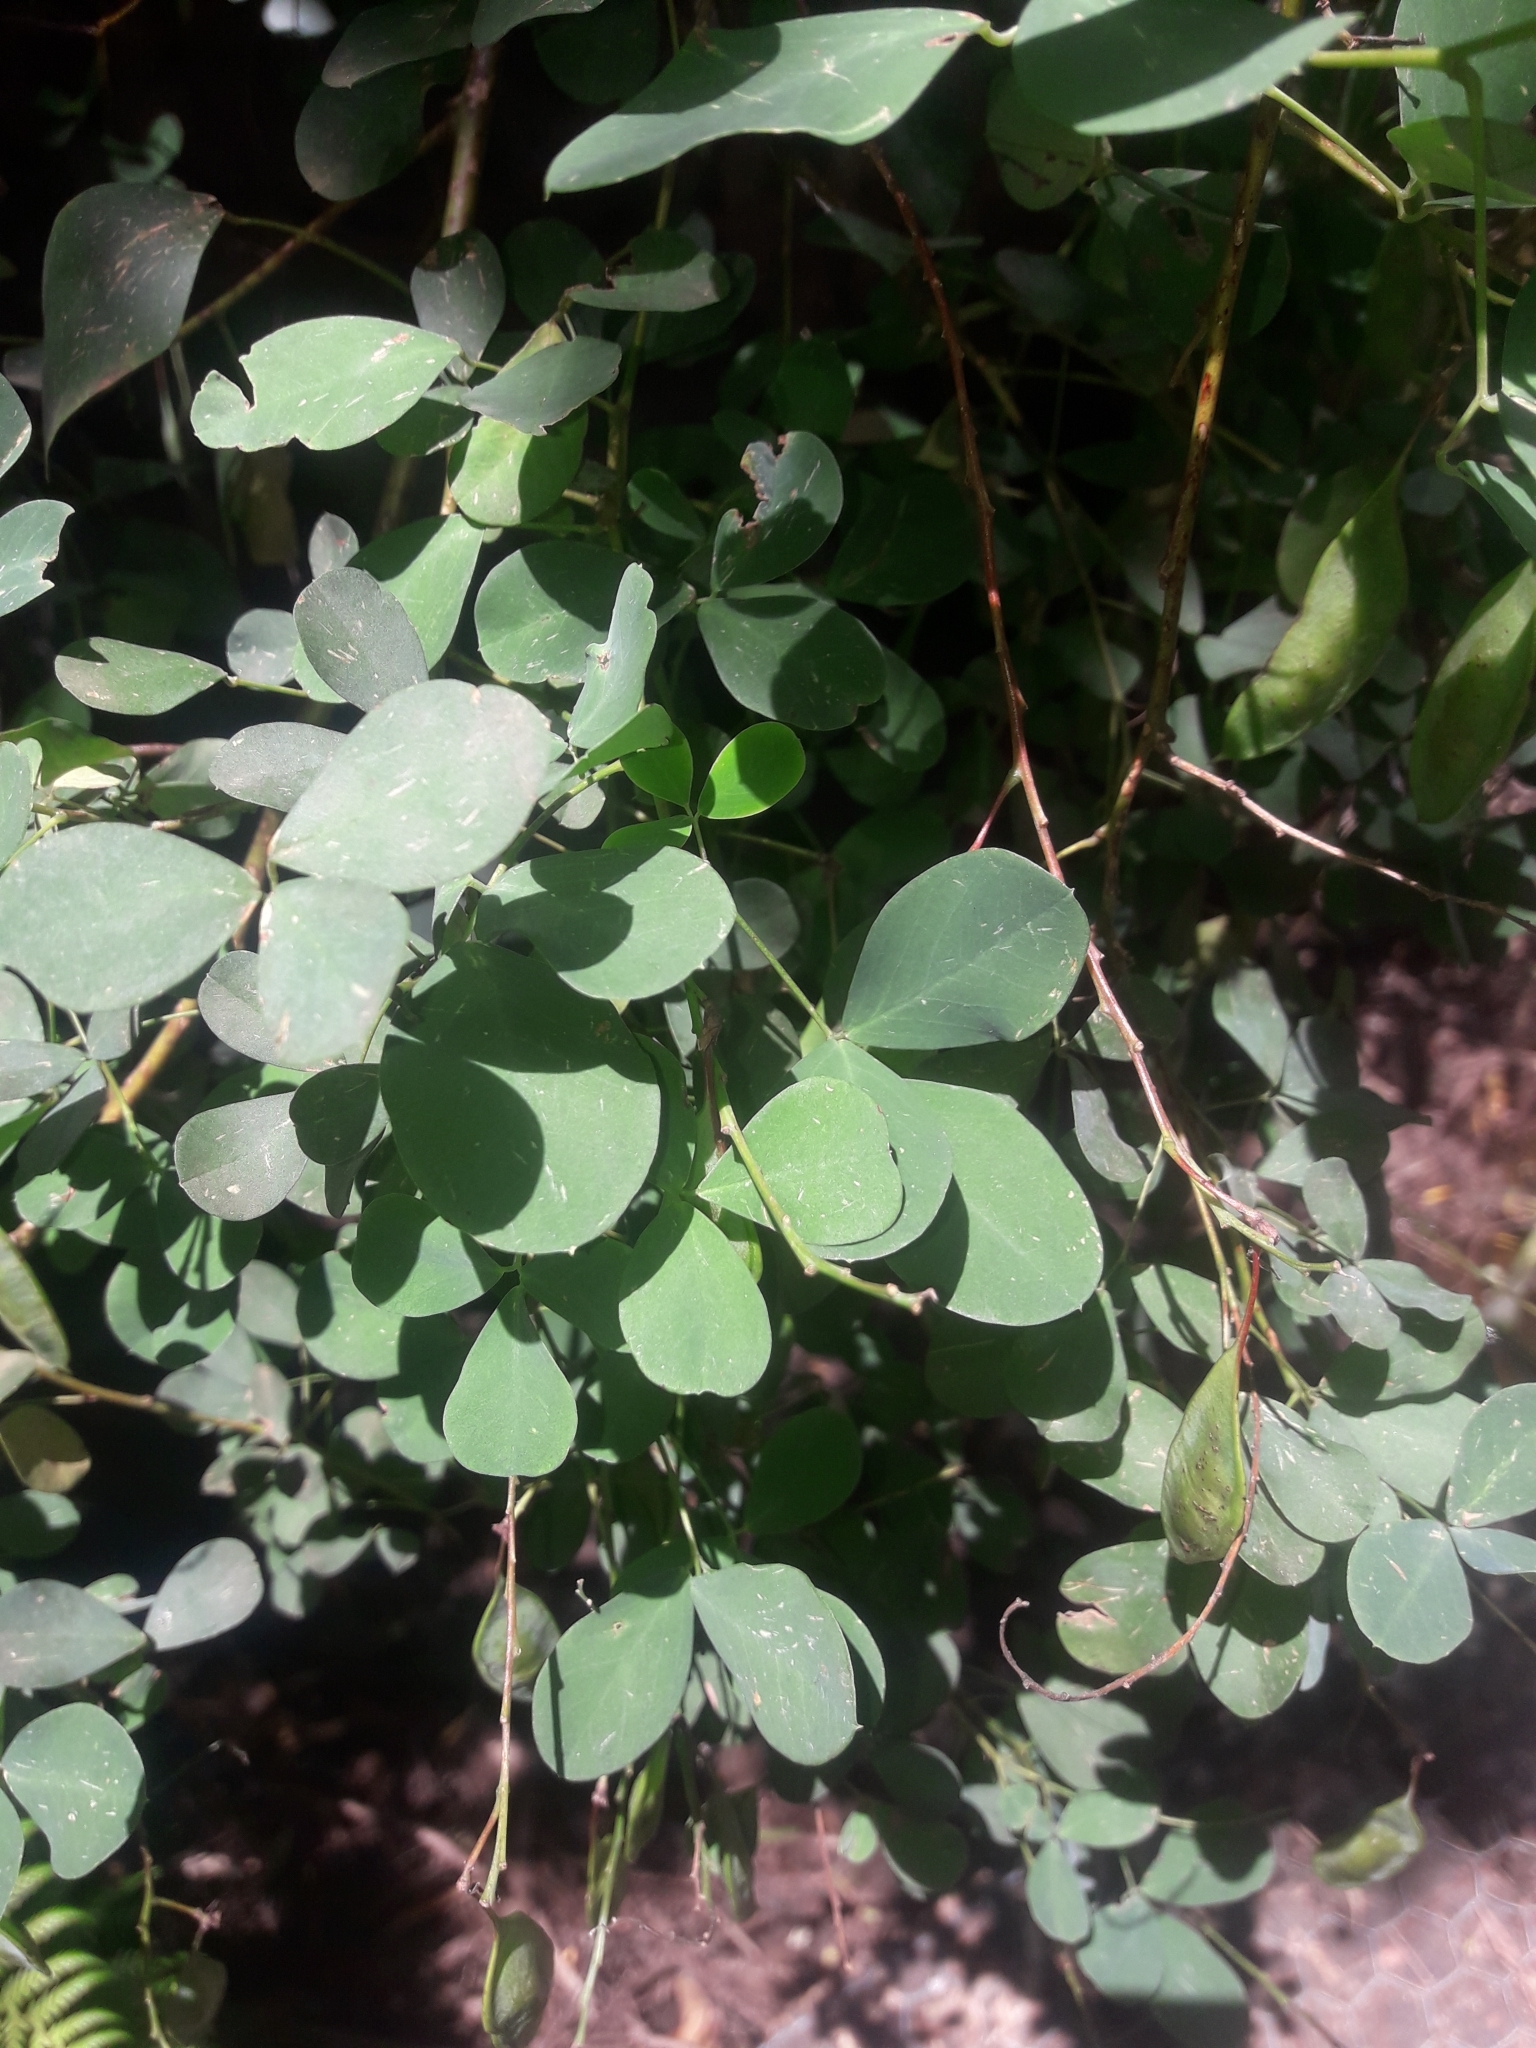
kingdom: Plantae
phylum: Tracheophyta
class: Magnoliopsida
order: Fabales
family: Fabaceae
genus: Goodia
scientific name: Goodia lotifolia
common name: Cloverleaf-poison
